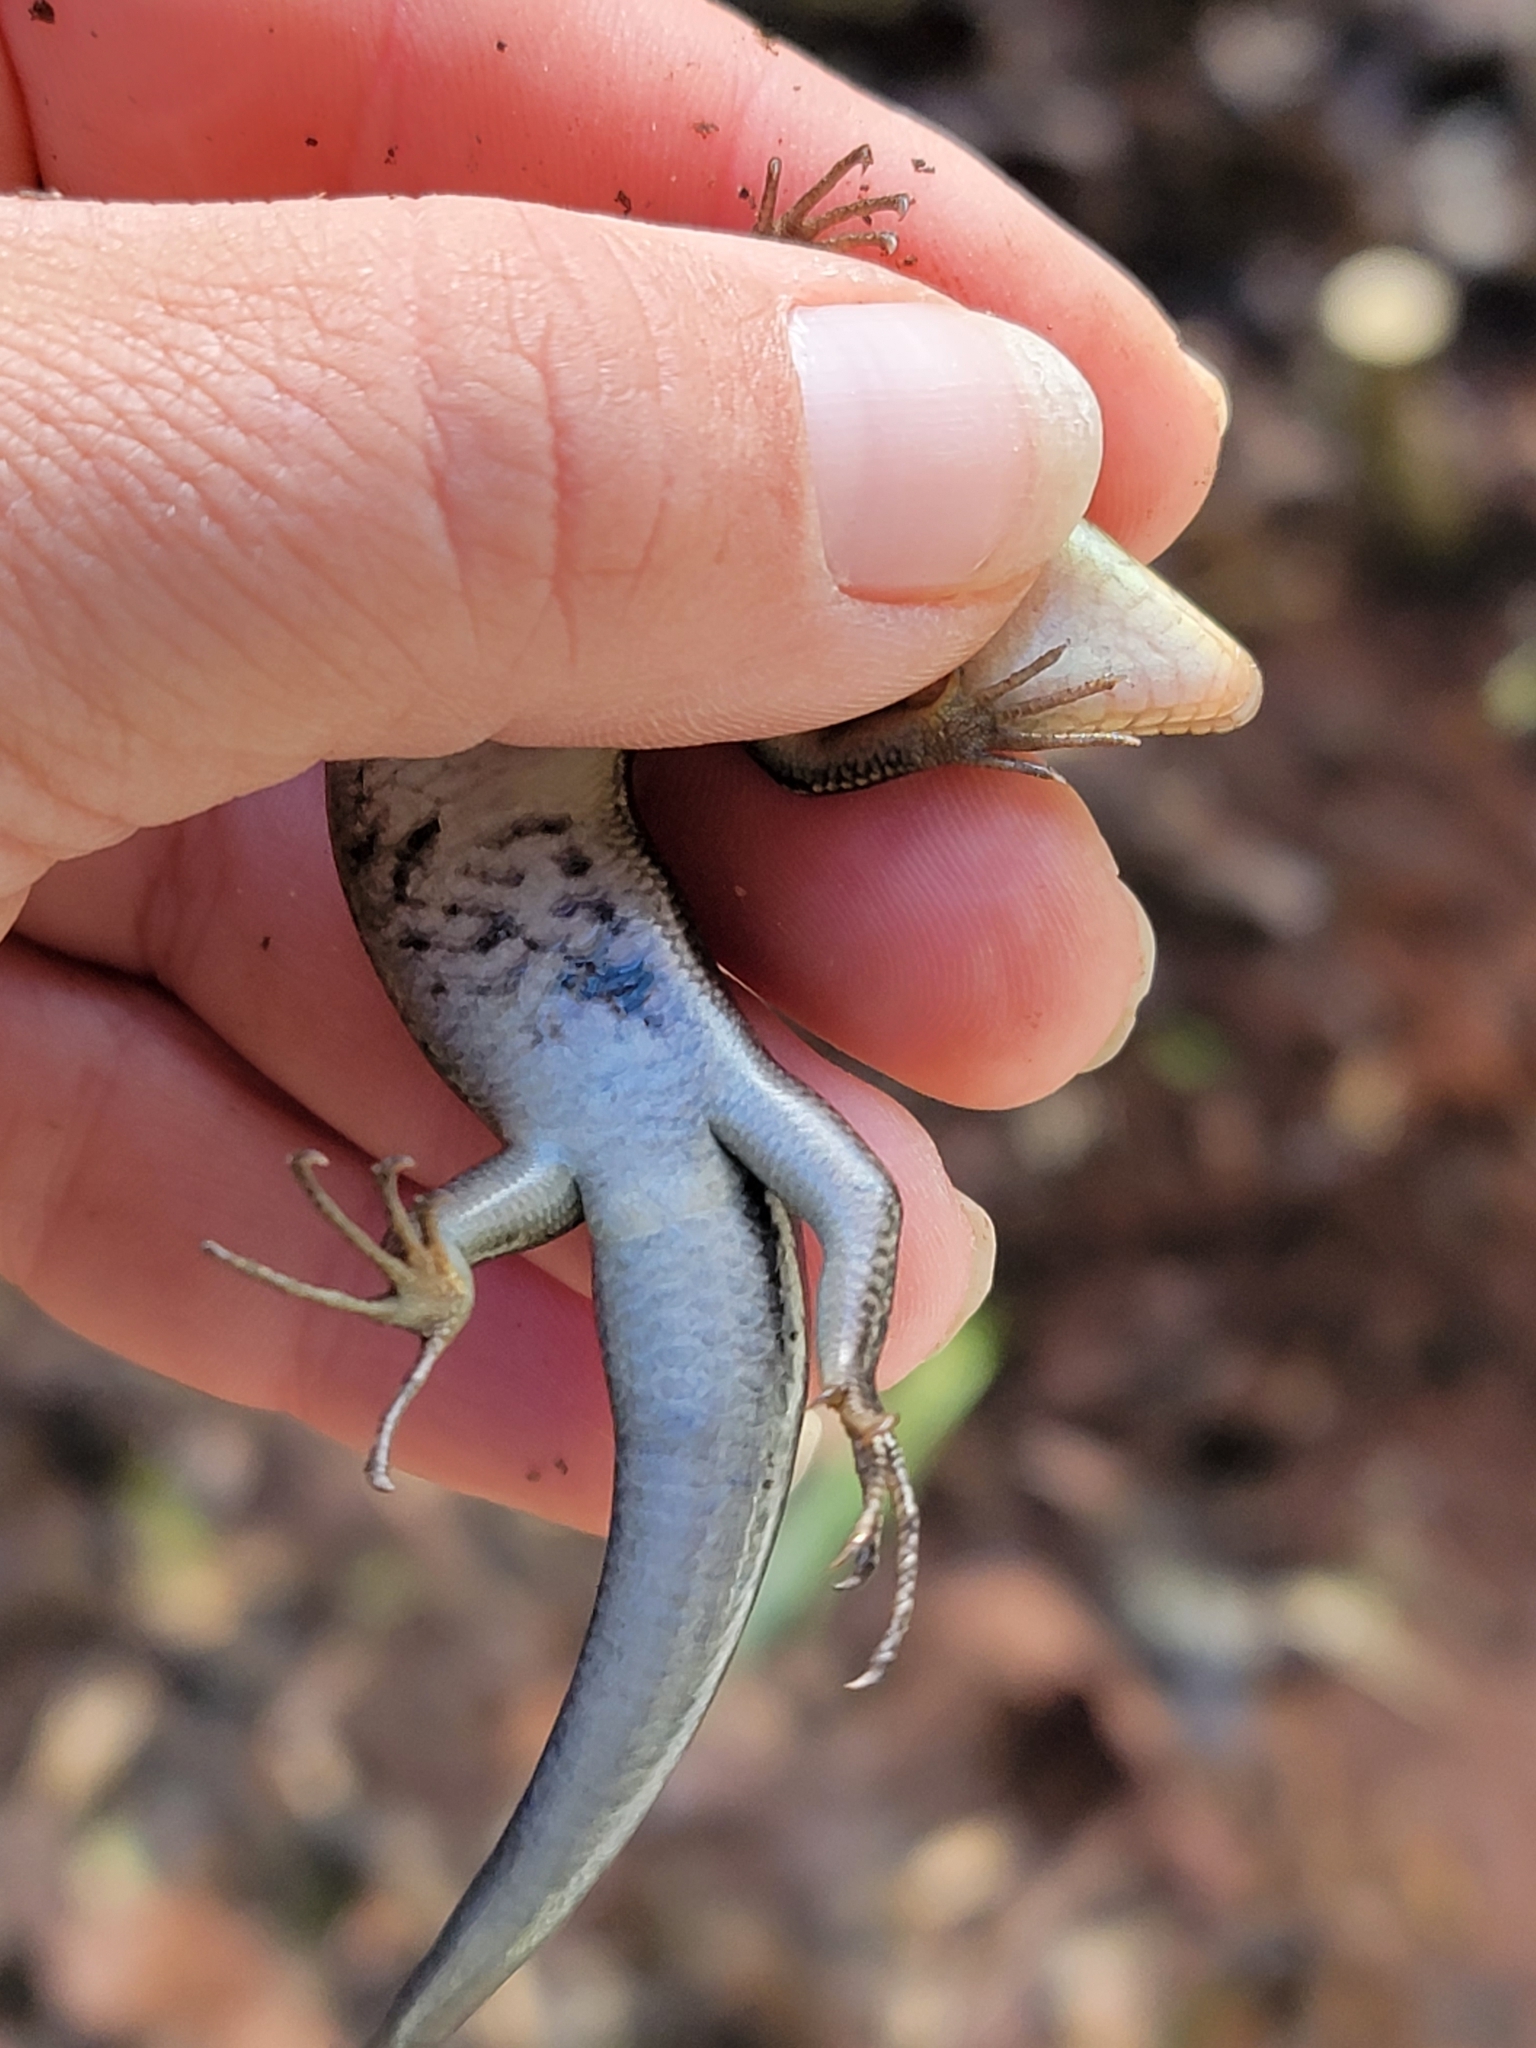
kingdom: Animalia
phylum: Chordata
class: Squamata
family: Scincidae
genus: Plestiodon
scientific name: Plestiodon fasciatus
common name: Five-lined skink
